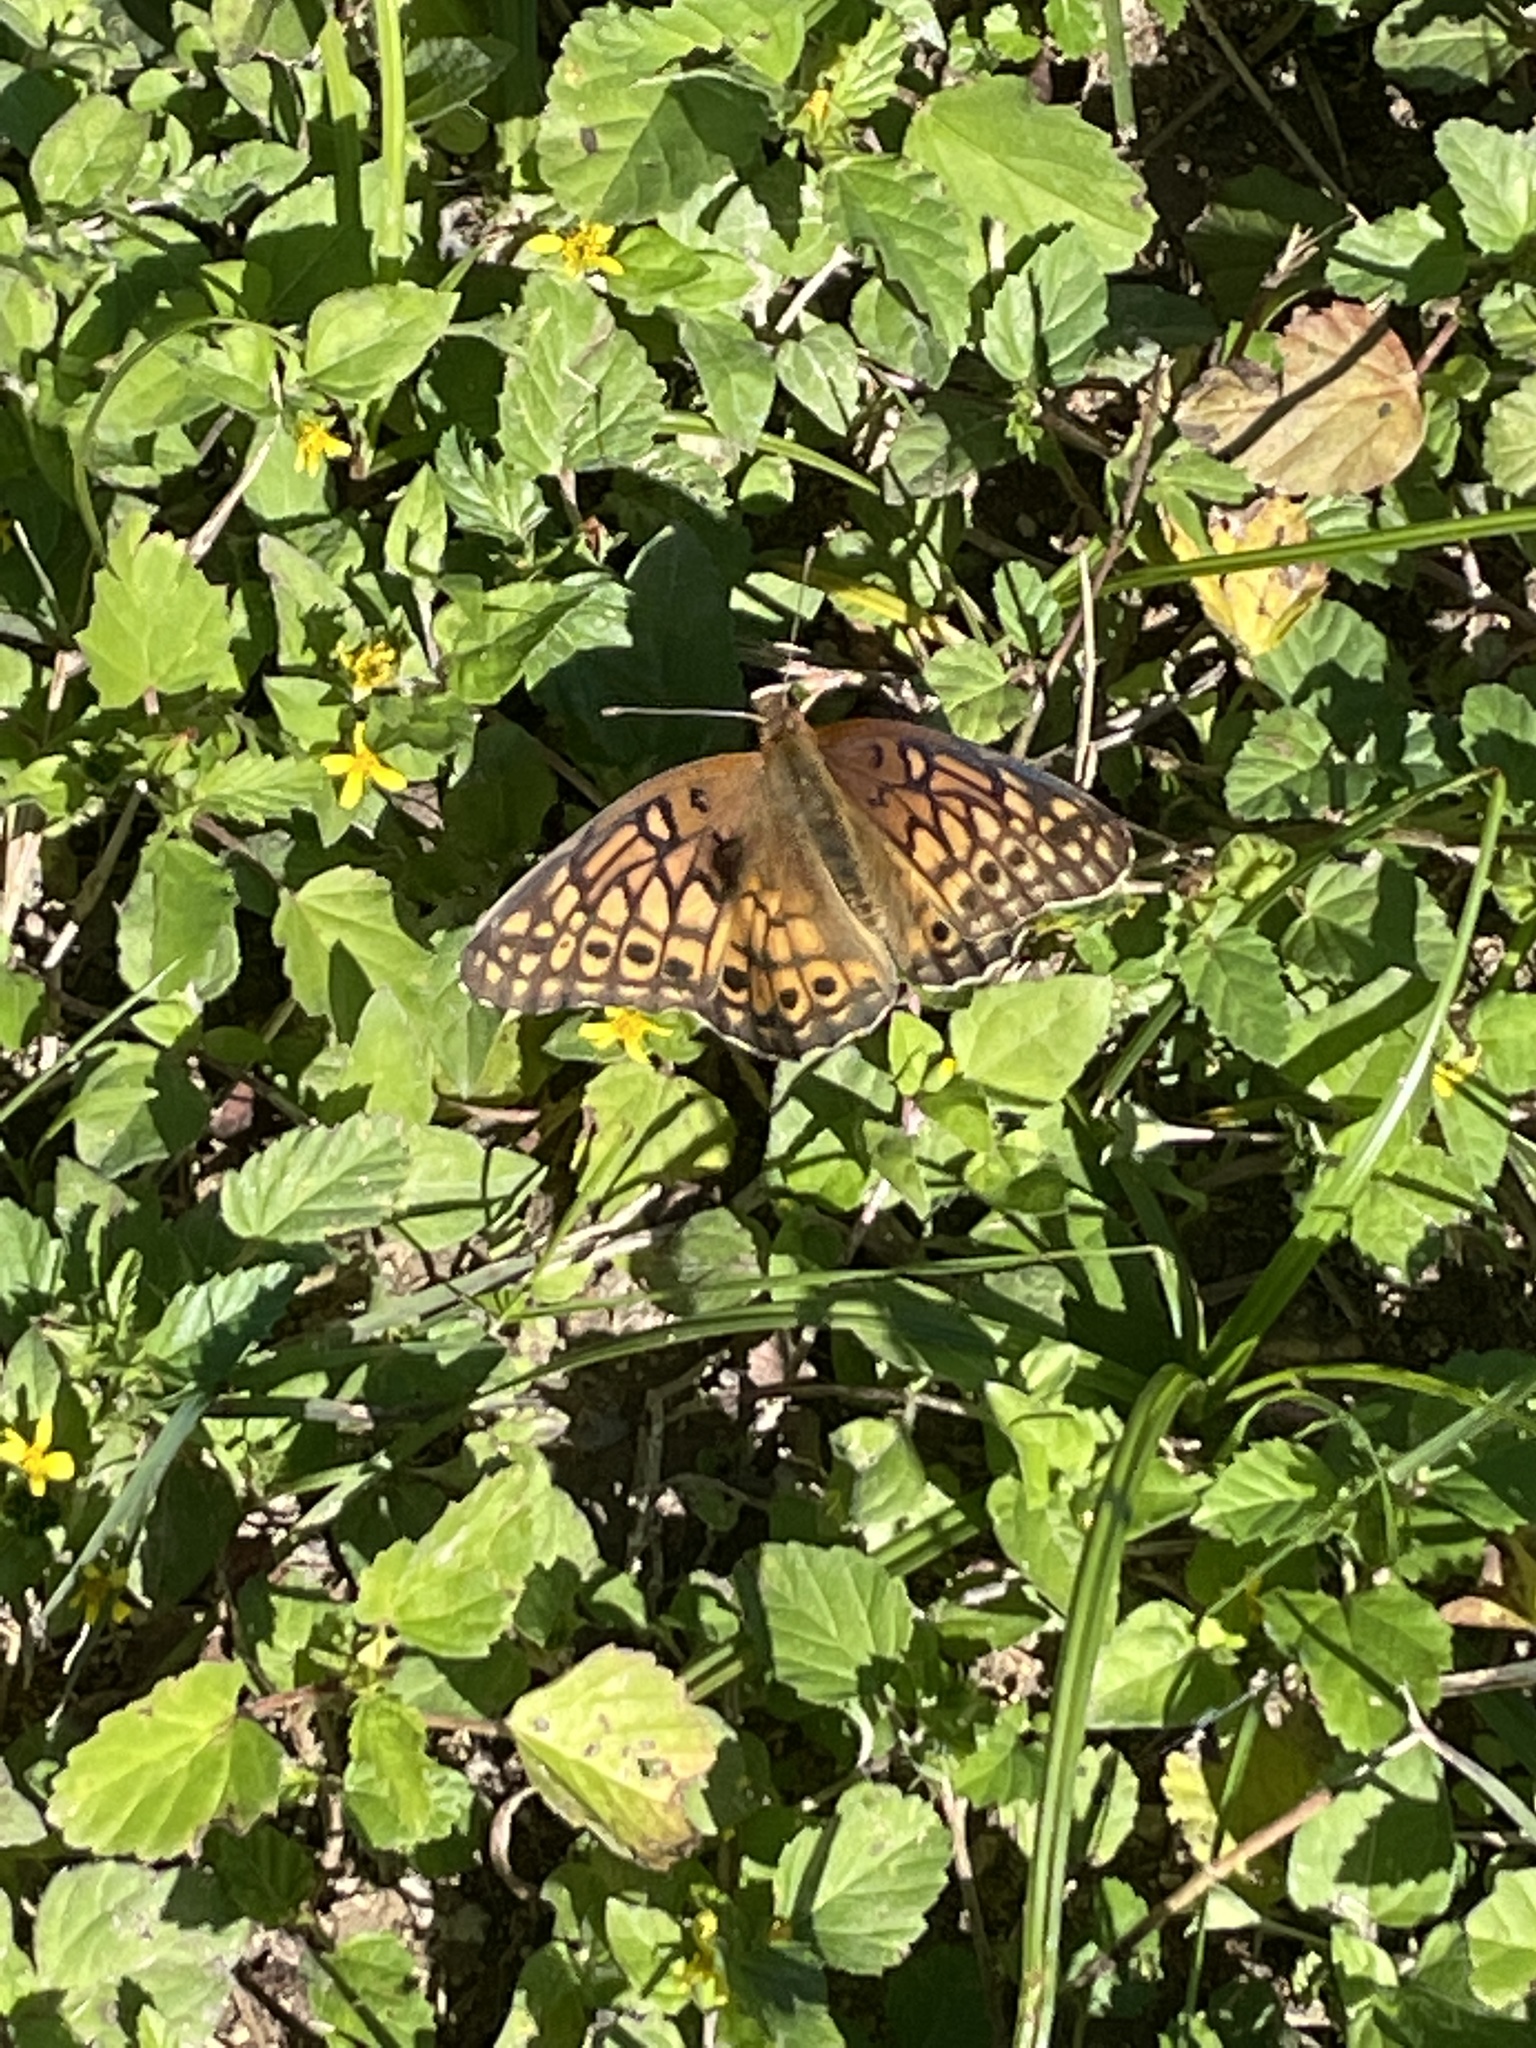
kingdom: Animalia
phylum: Arthropoda
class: Insecta
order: Lepidoptera
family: Nymphalidae
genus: Euptoieta
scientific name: Euptoieta claudia
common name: Variegated fritillary
